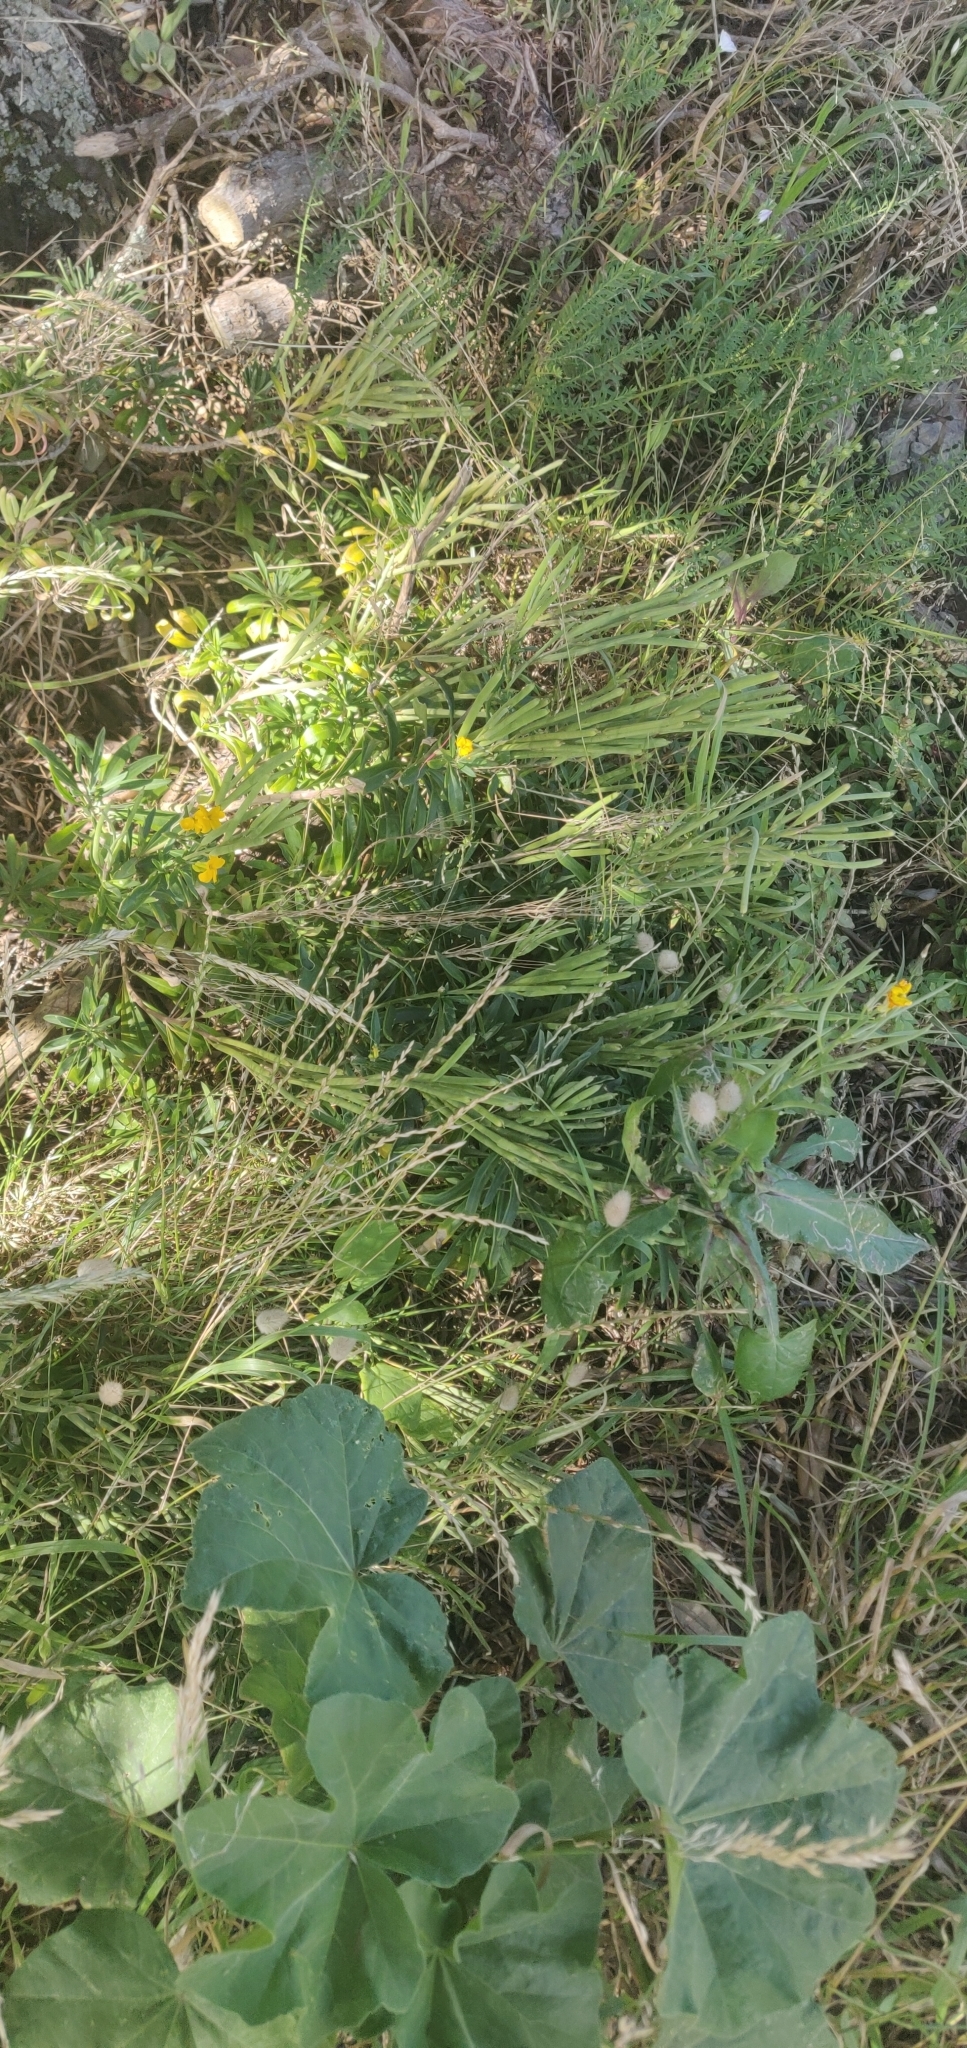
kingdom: Plantae
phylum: Tracheophyta
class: Magnoliopsida
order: Brassicales
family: Brassicaceae
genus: Erysimum
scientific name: Erysimum cheiri
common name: Wallflower
